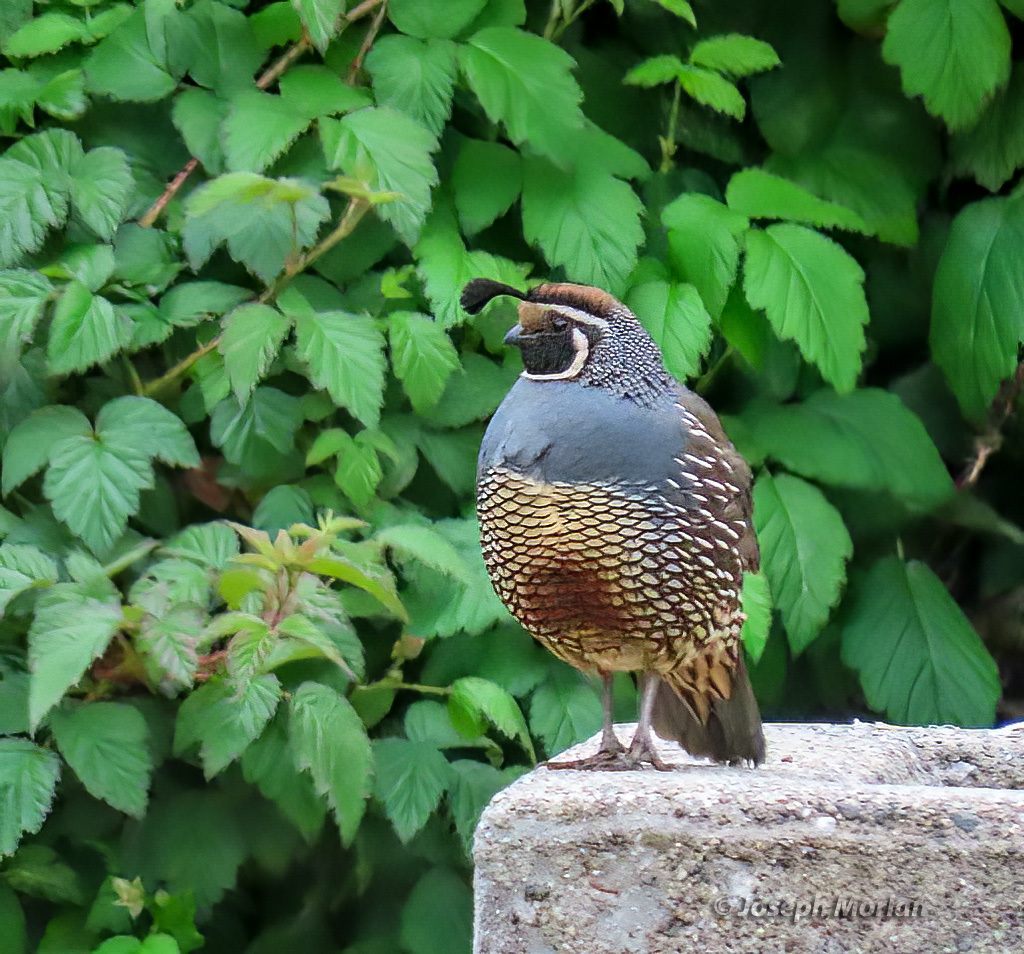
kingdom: Animalia
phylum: Chordata
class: Aves
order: Galliformes
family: Odontophoridae
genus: Callipepla
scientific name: Callipepla californica
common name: California quail
